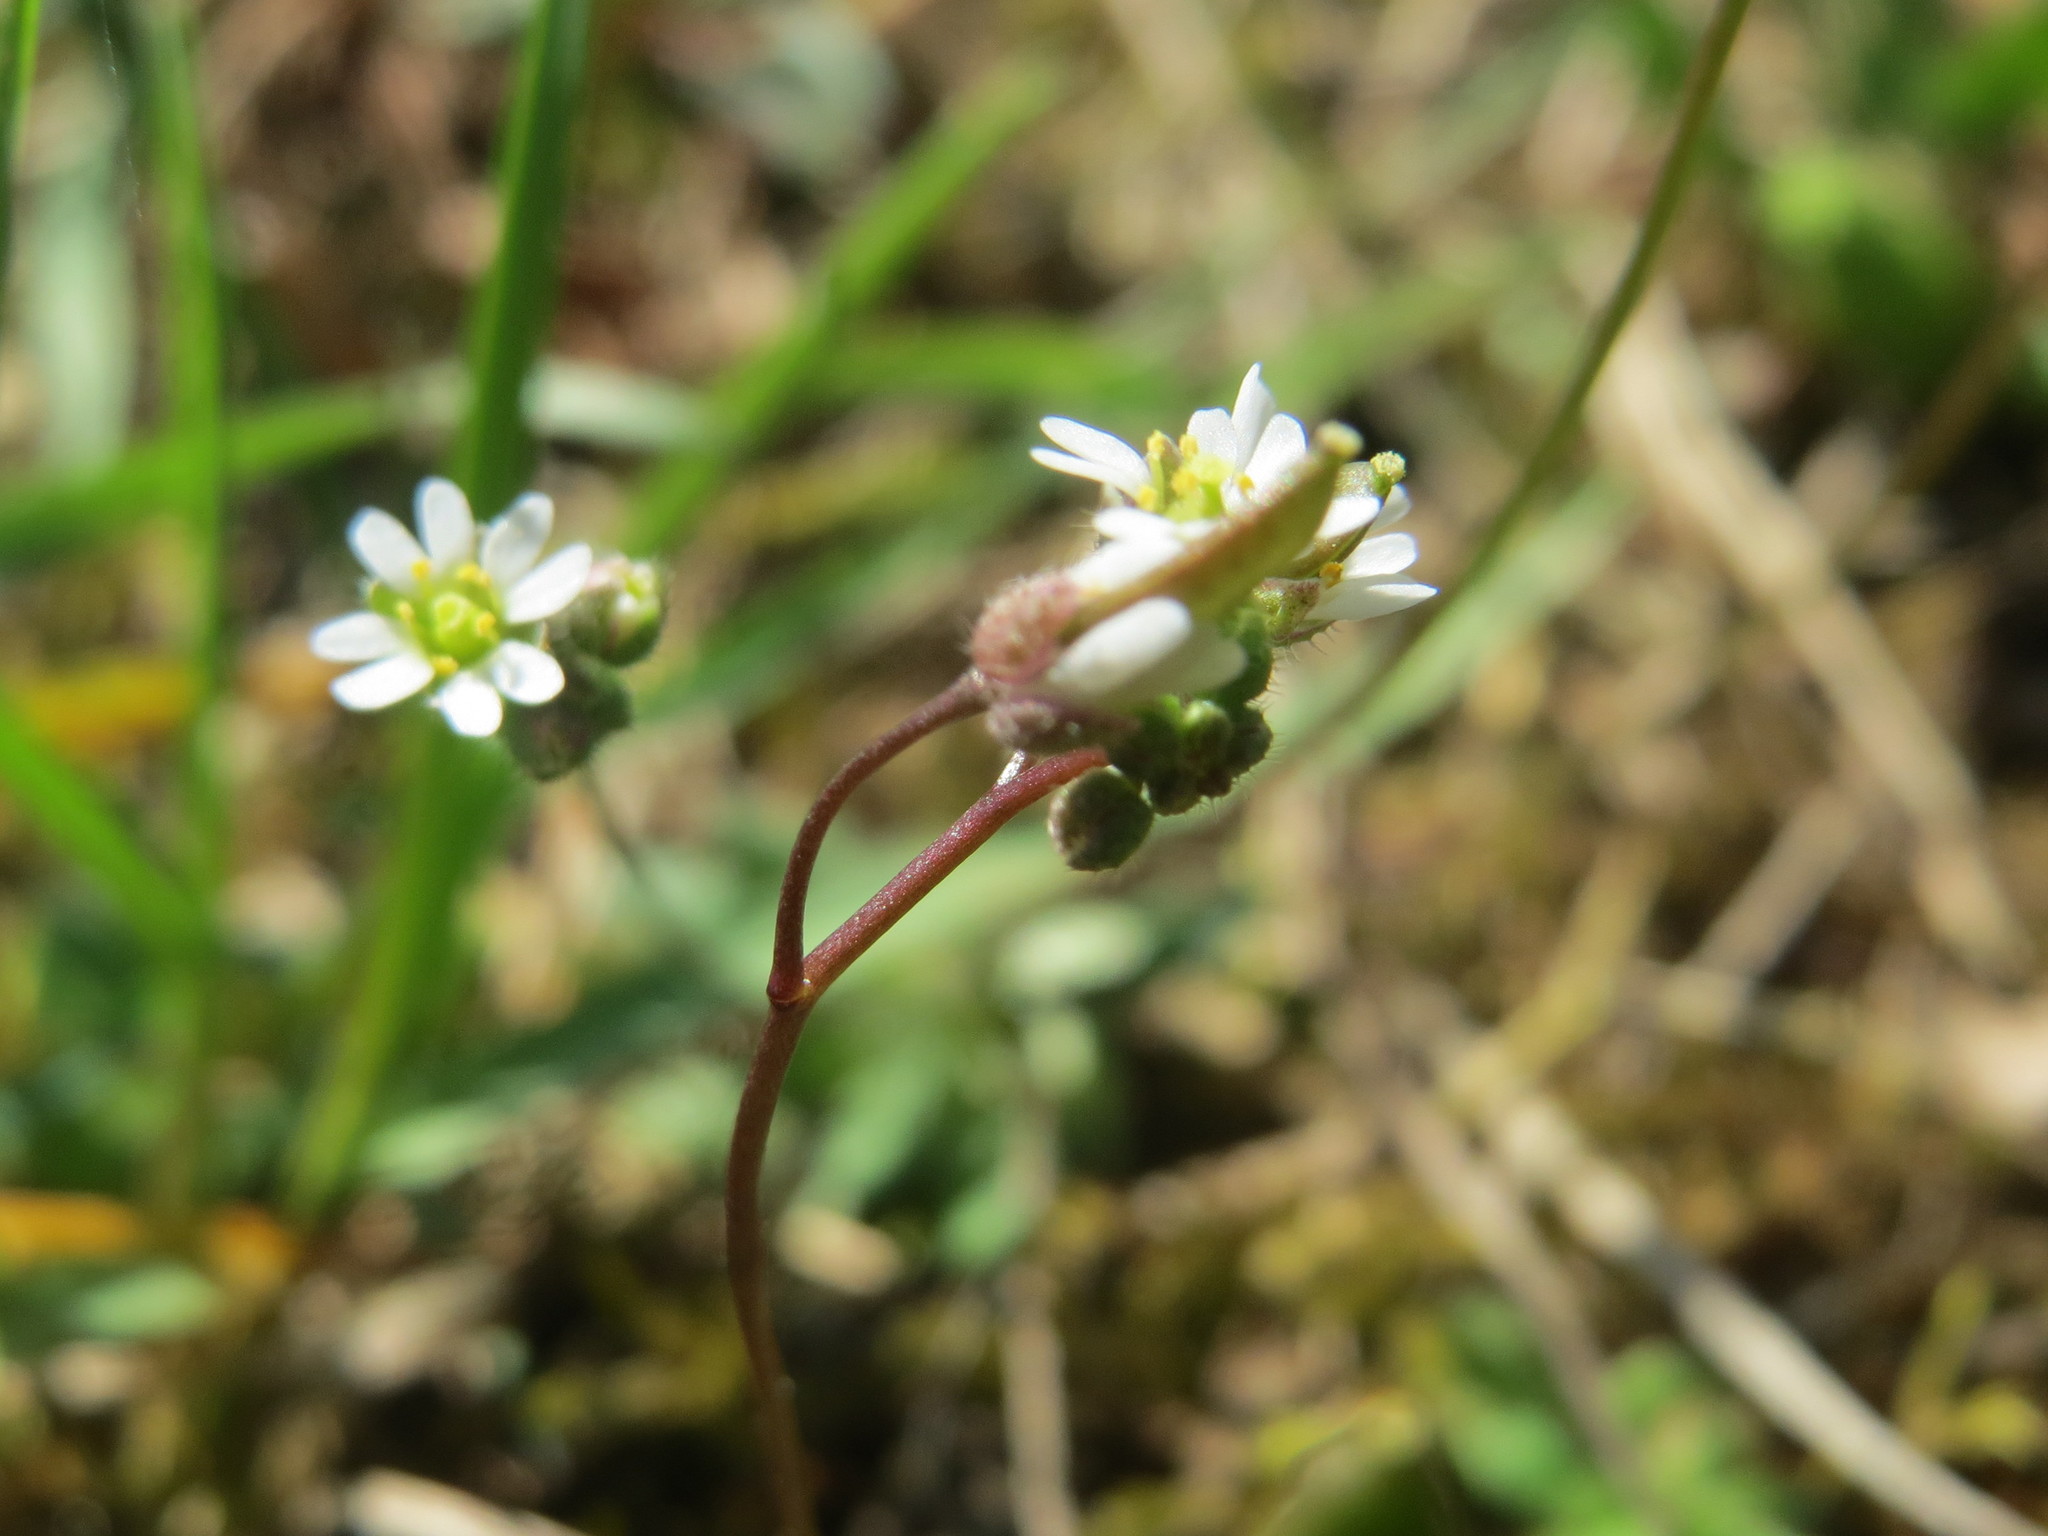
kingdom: Plantae
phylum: Tracheophyta
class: Magnoliopsida
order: Brassicales
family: Brassicaceae
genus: Draba
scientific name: Draba verna
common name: Spring draba
